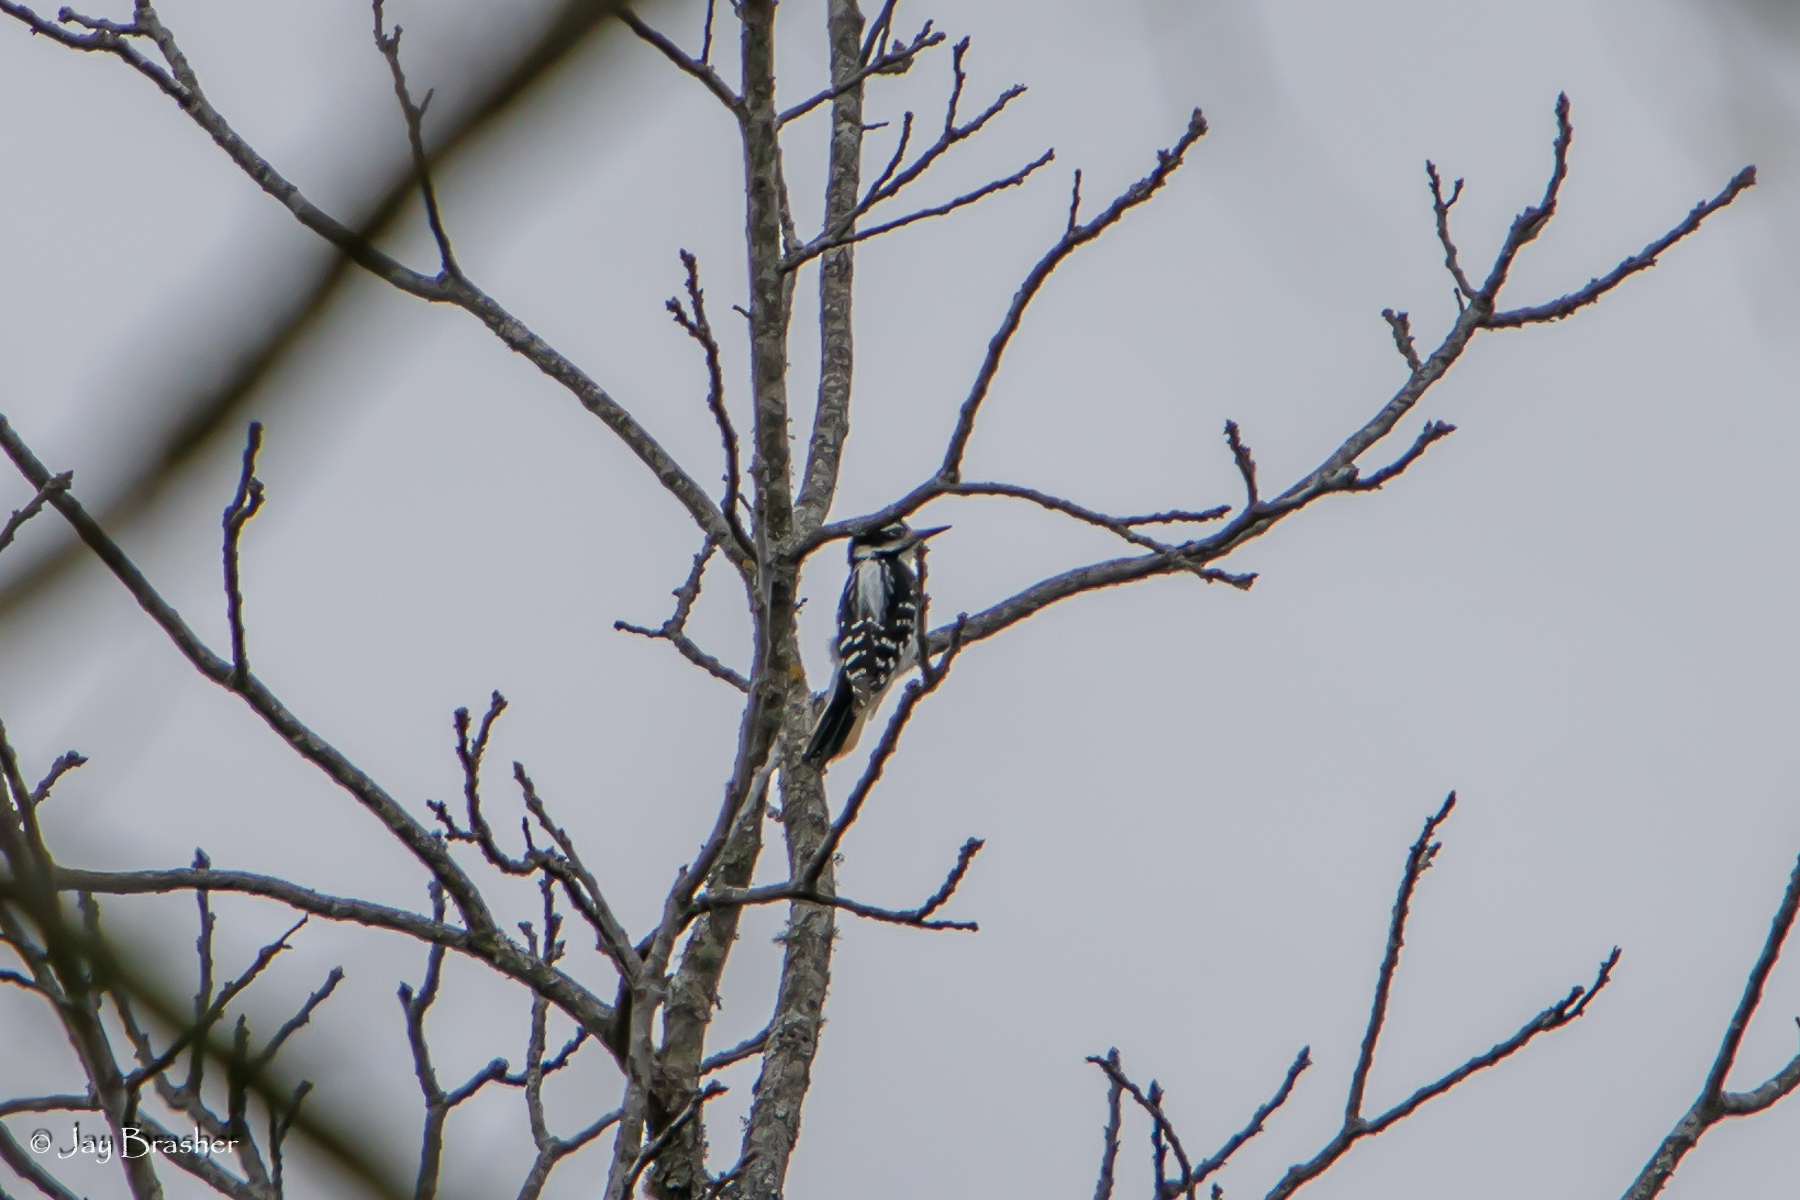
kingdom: Animalia
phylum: Chordata
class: Aves
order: Piciformes
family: Picidae
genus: Leuconotopicus
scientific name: Leuconotopicus villosus
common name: Hairy woodpecker
